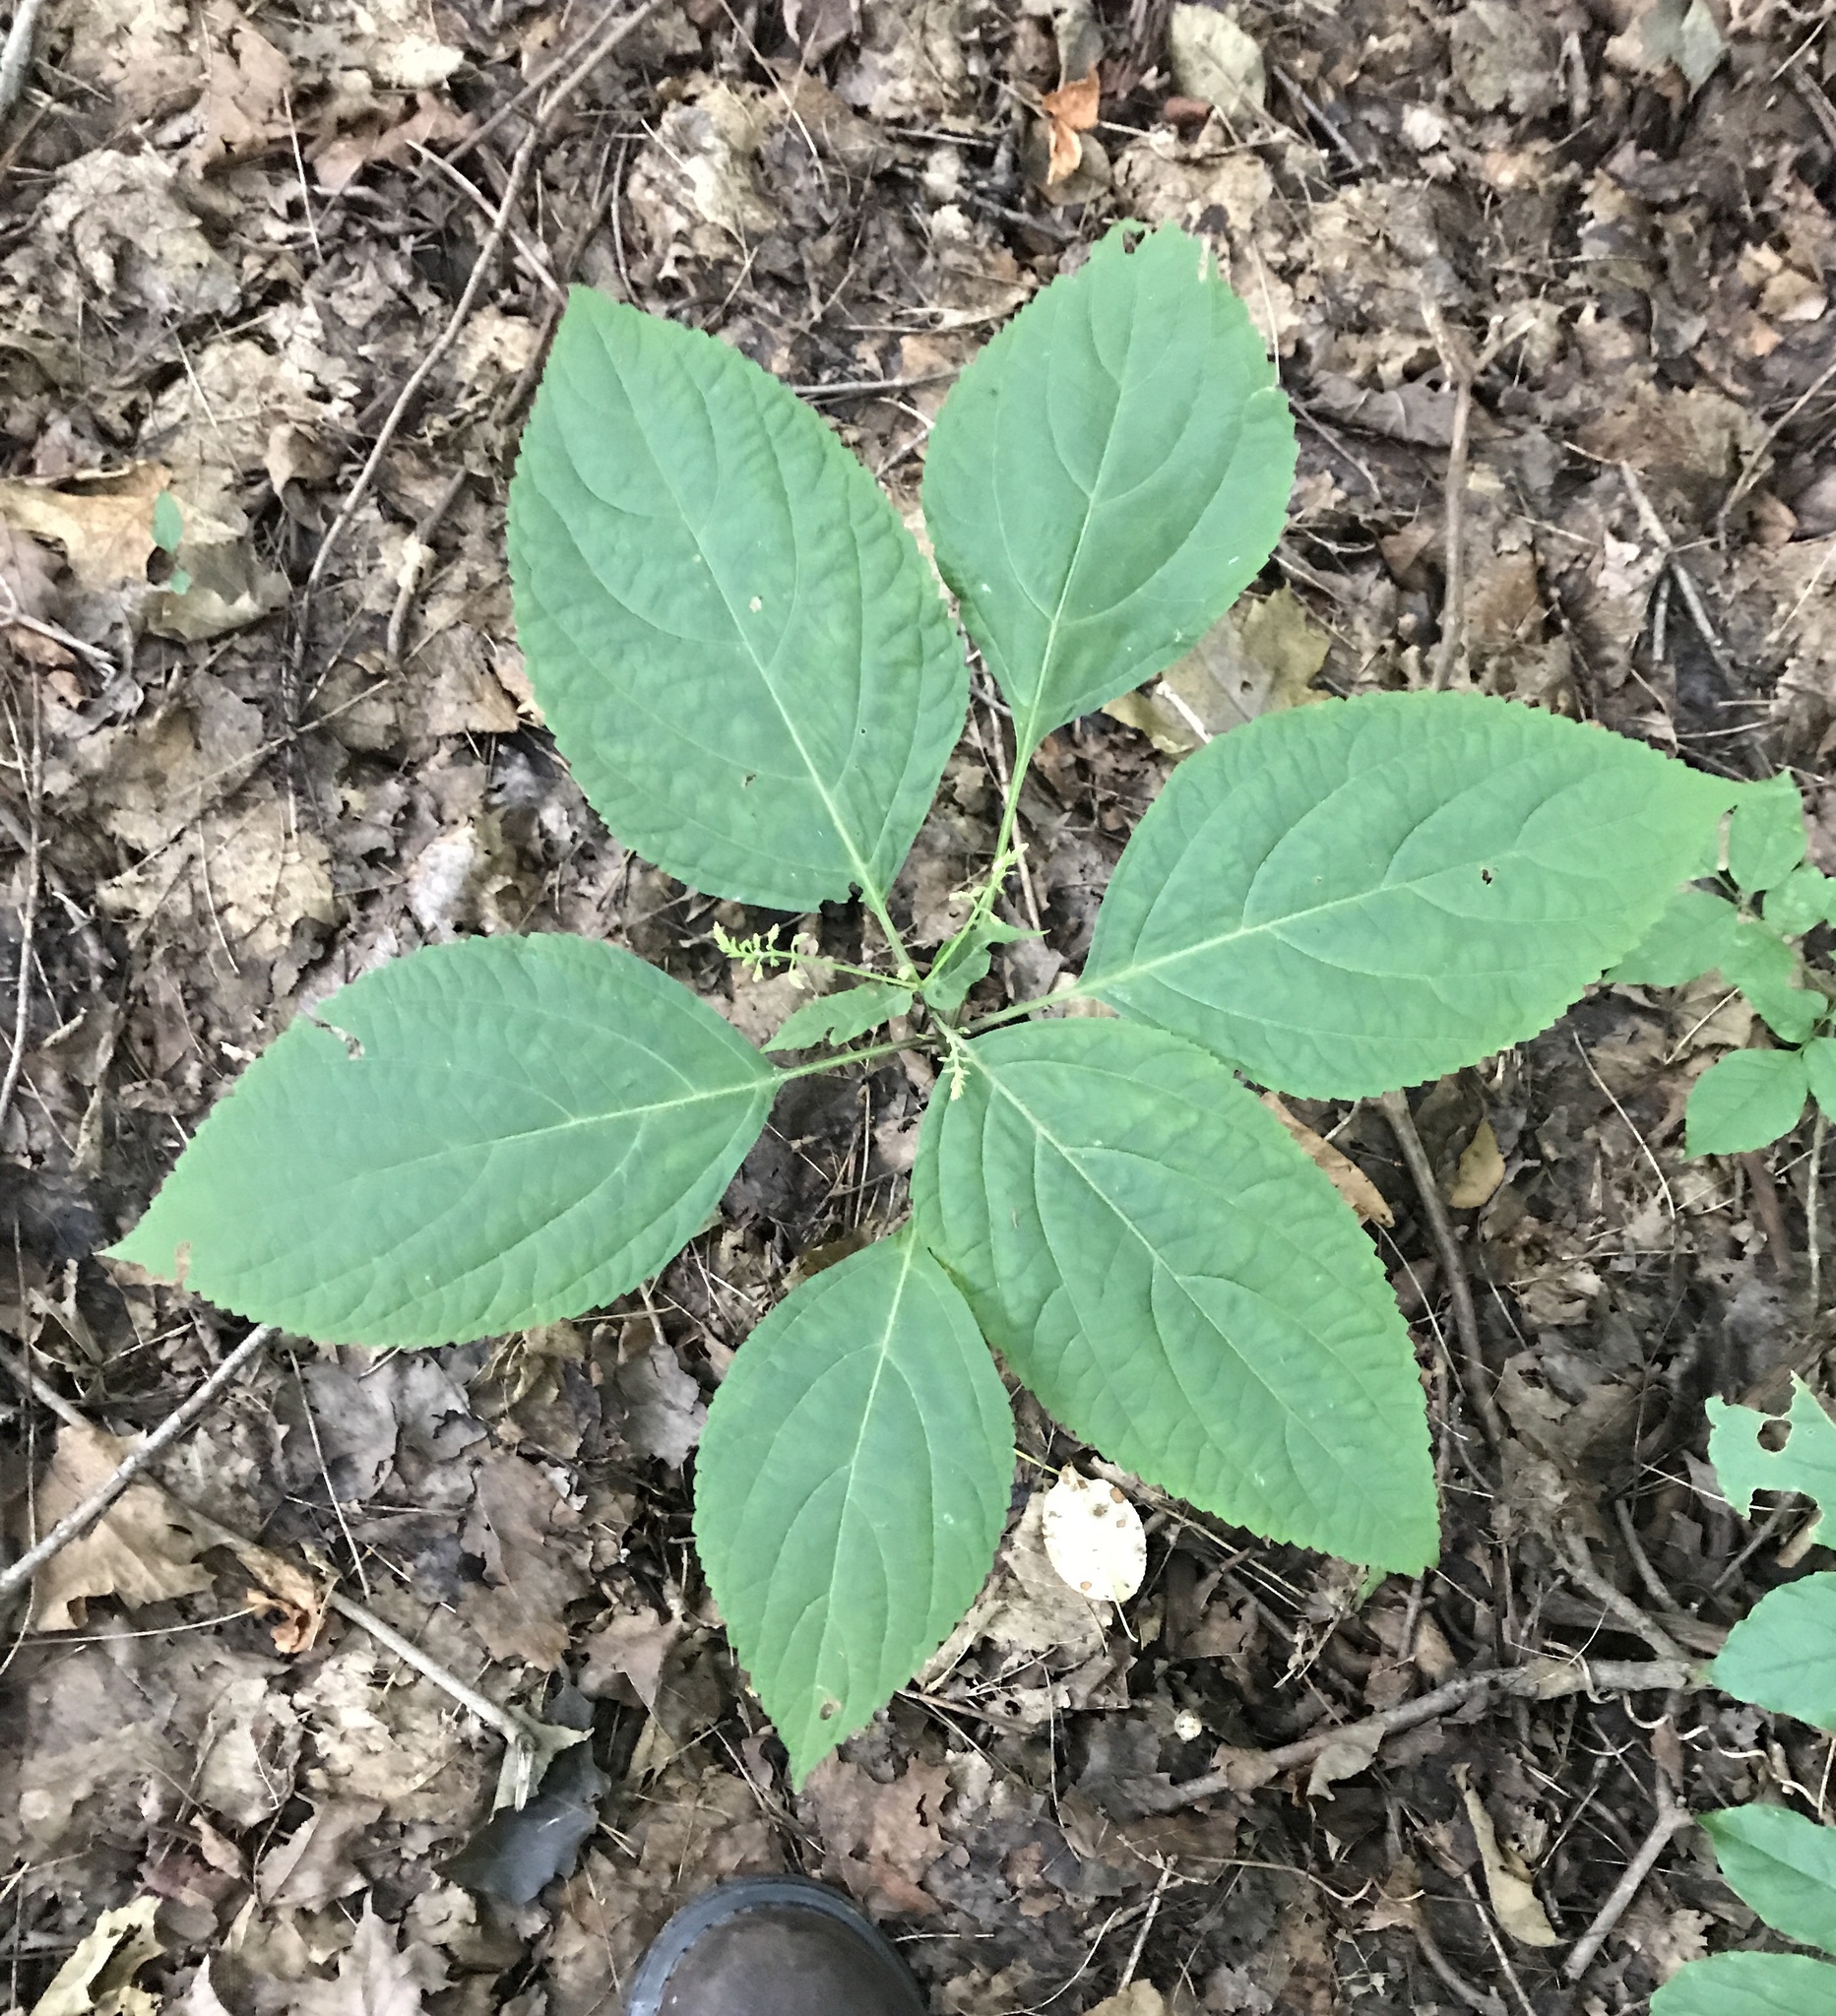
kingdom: Plantae
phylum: Tracheophyta
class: Magnoliopsida
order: Lamiales
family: Lamiaceae
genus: Collinsonia
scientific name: Collinsonia canadensis
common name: Northern horsebalm
